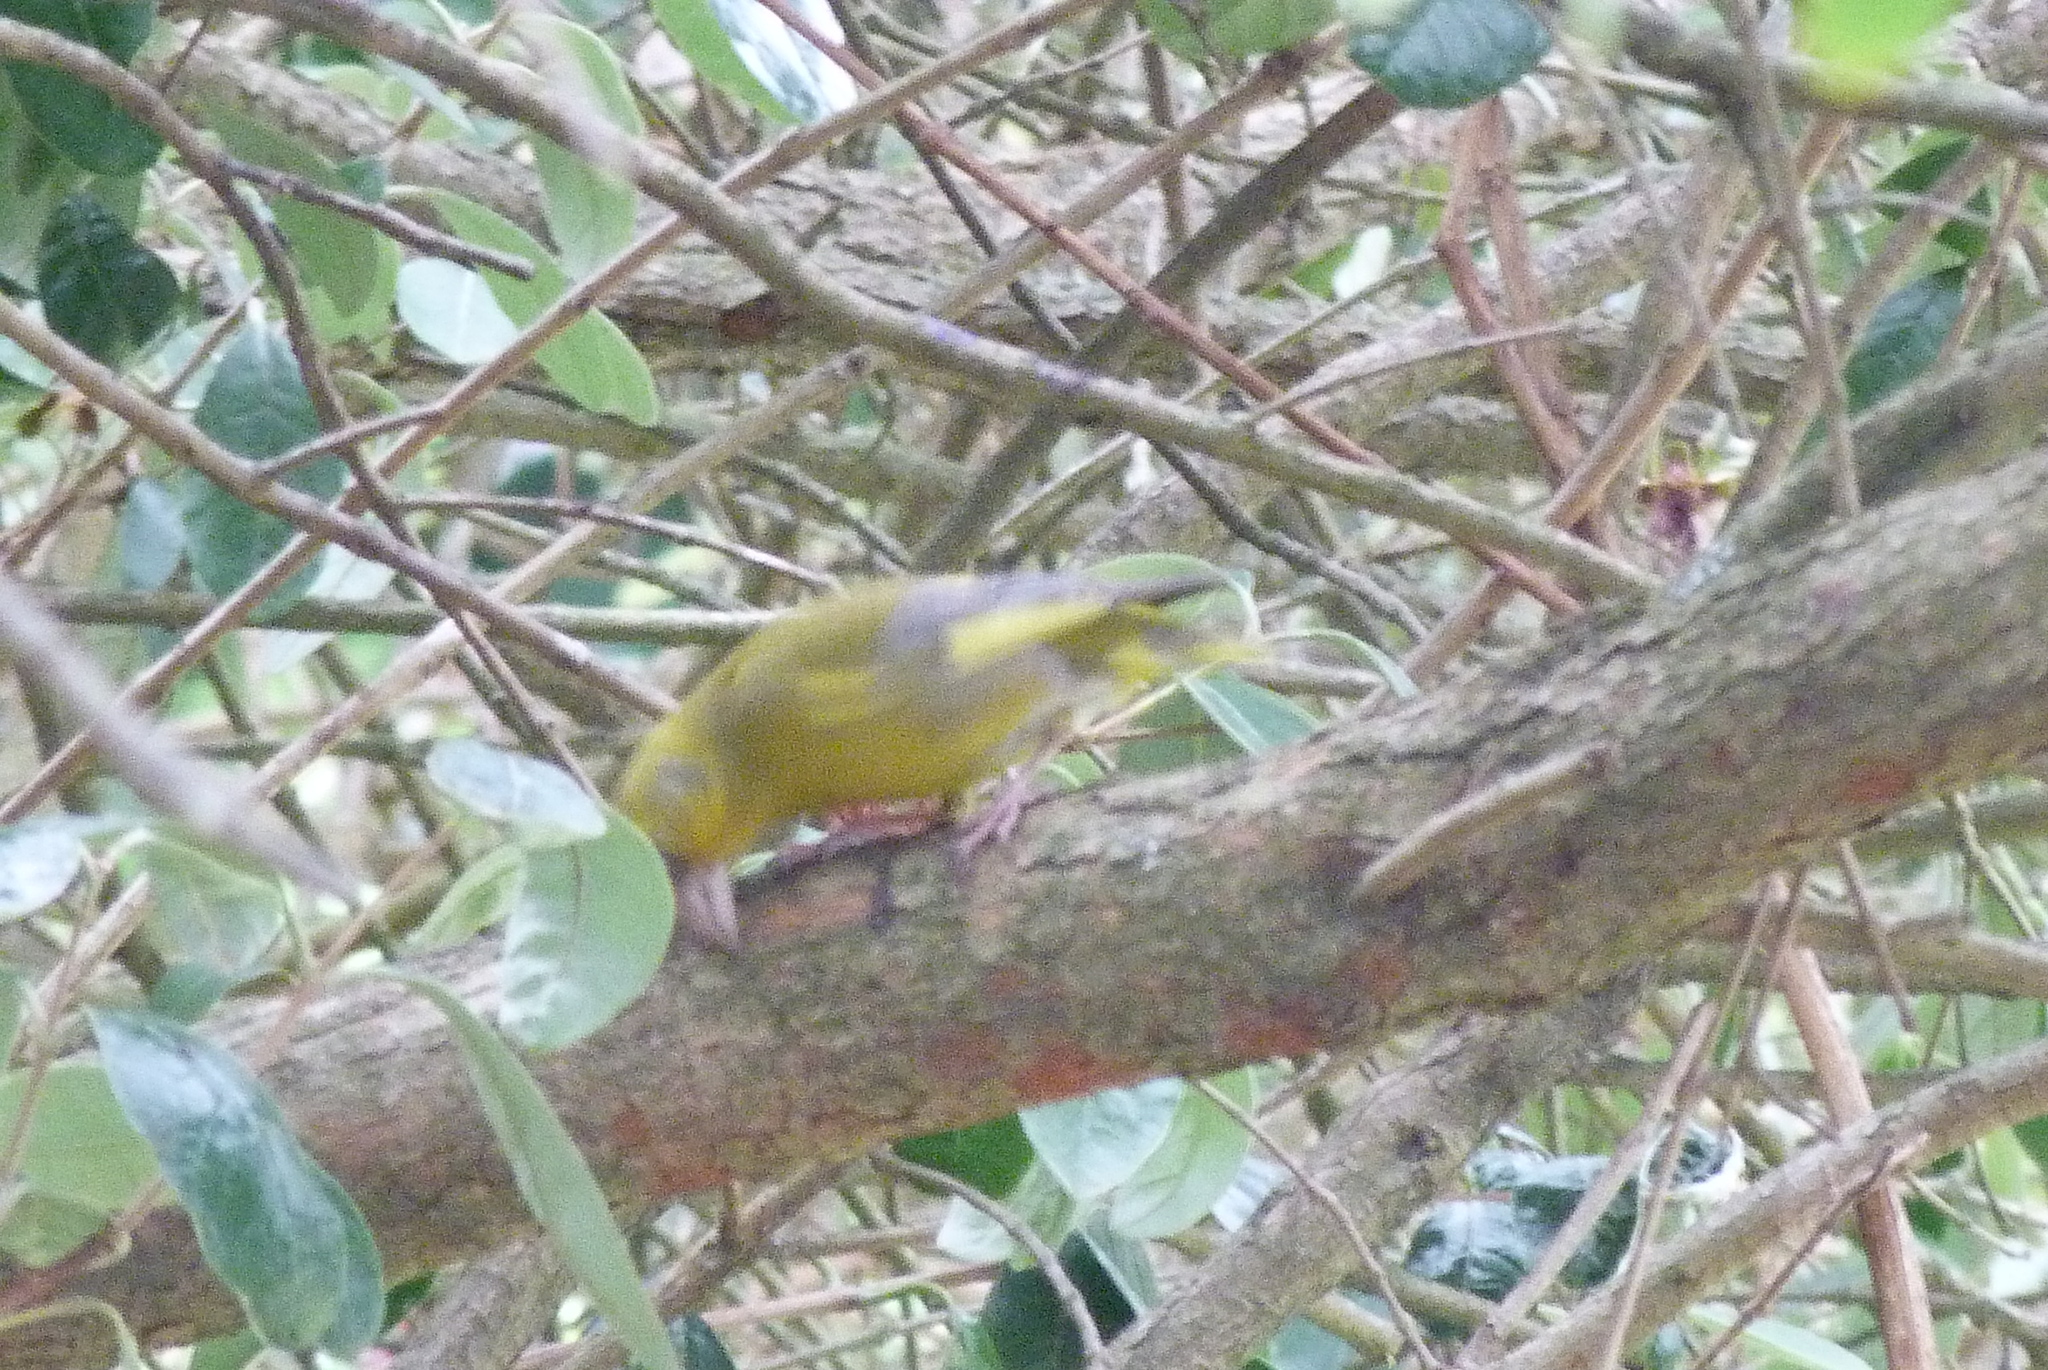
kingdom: Plantae
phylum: Tracheophyta
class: Liliopsida
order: Poales
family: Poaceae
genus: Chloris
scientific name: Chloris chloris
